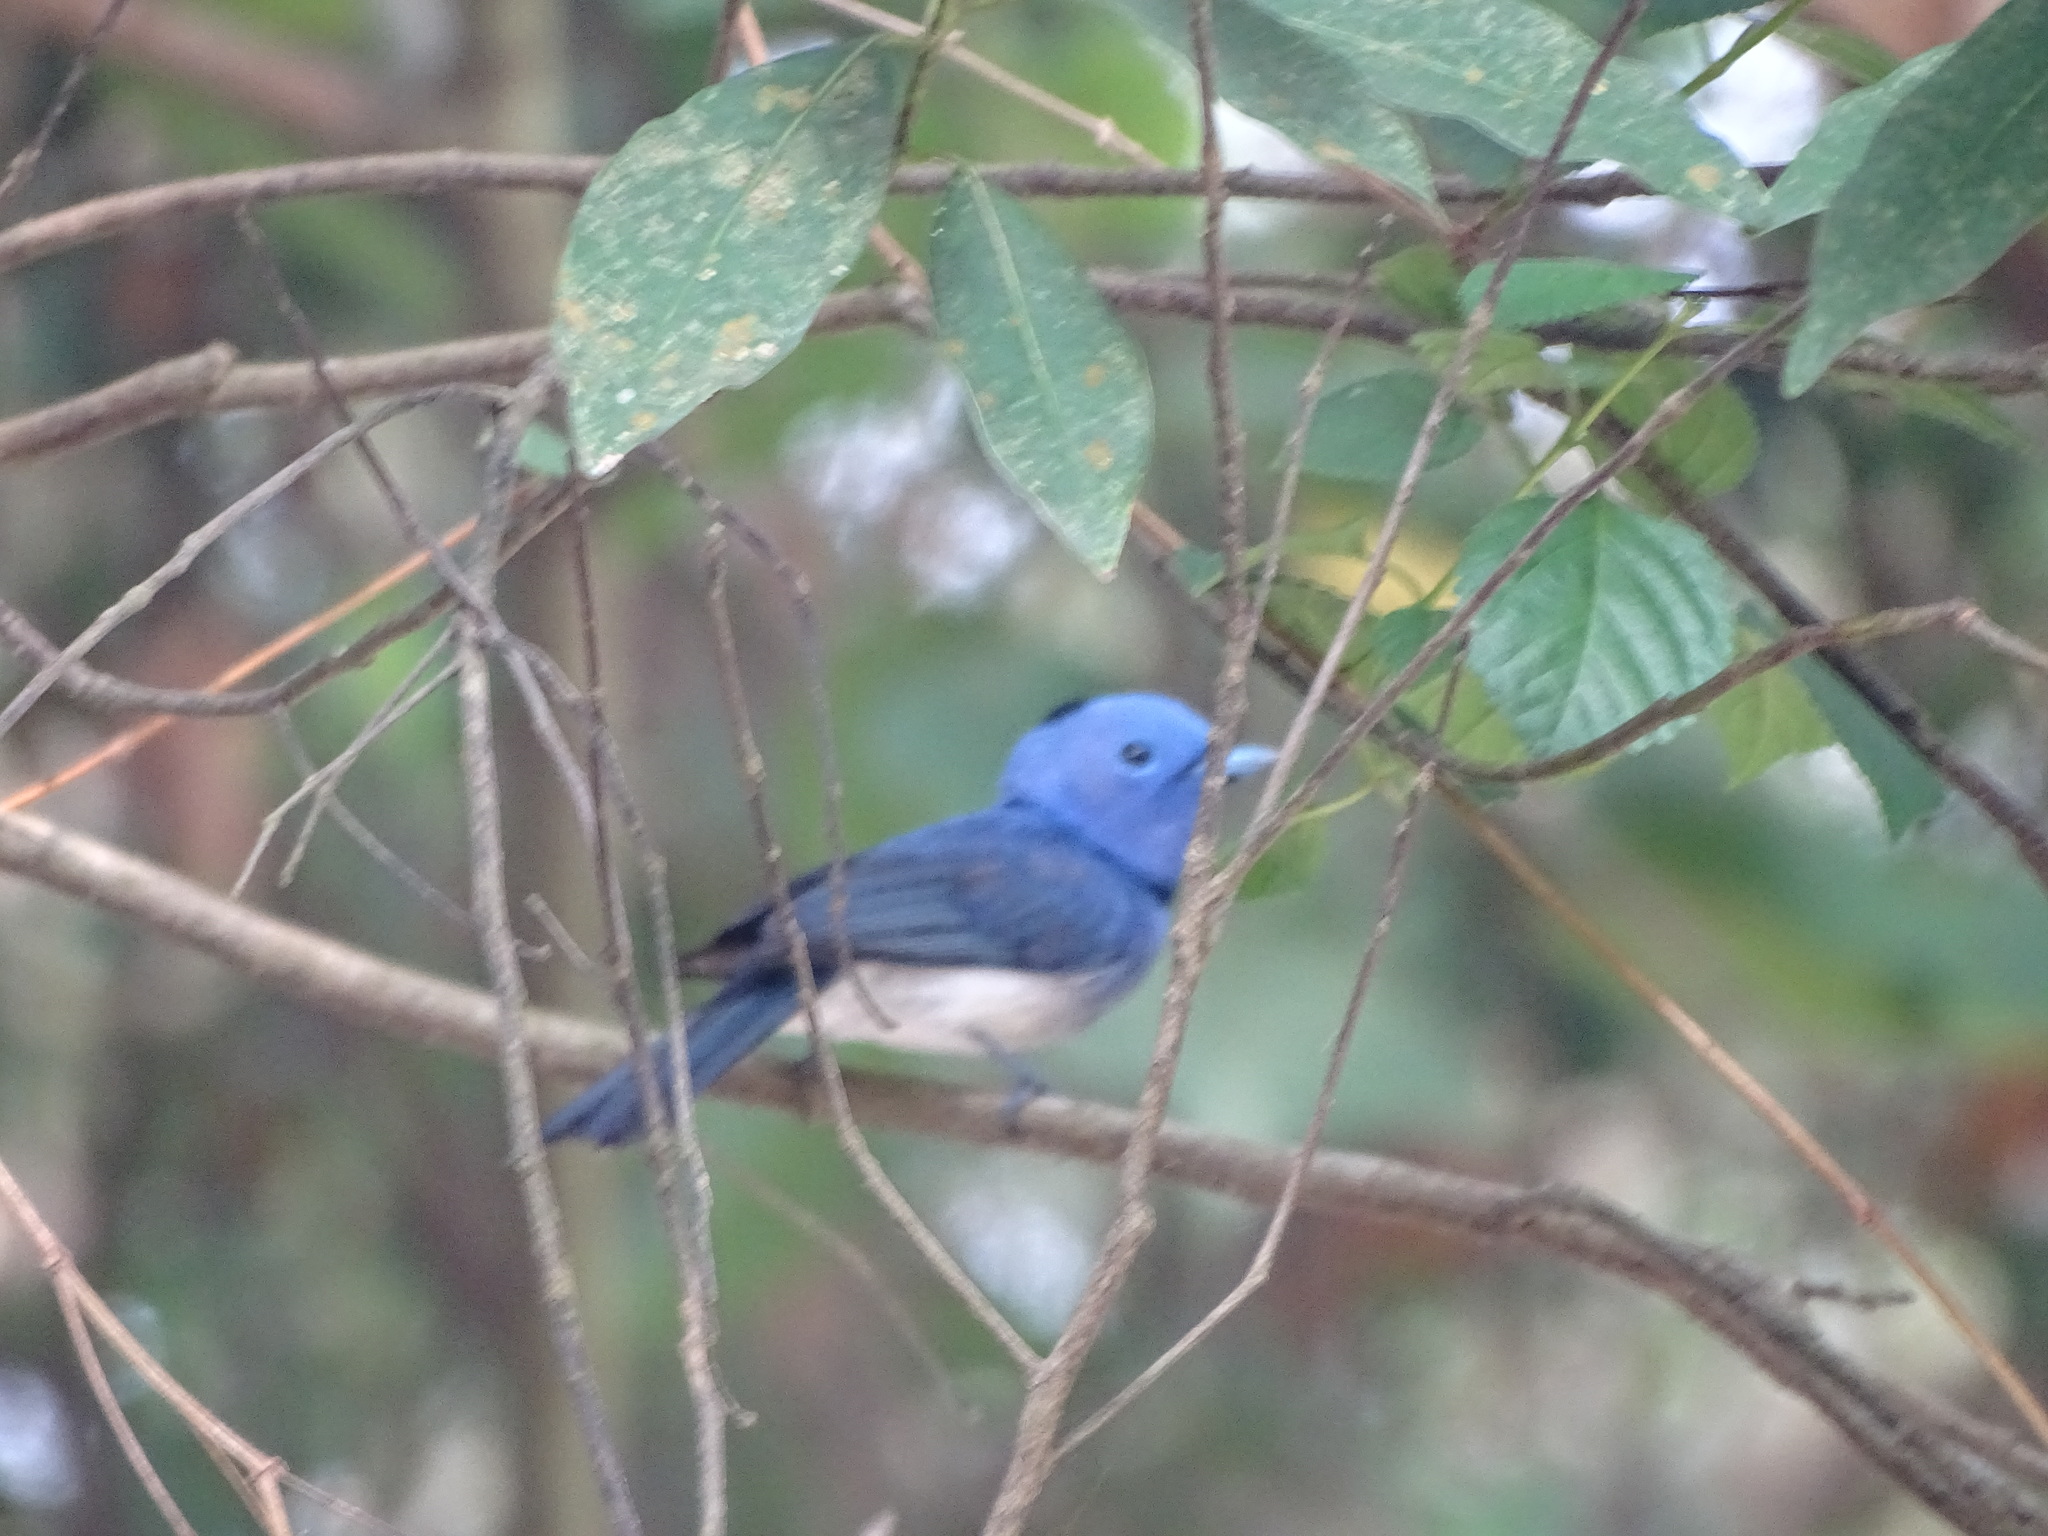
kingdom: Animalia
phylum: Chordata
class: Aves
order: Passeriformes
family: Monarchidae
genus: Hypothymis
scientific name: Hypothymis azurea
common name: Black-naped monarch
